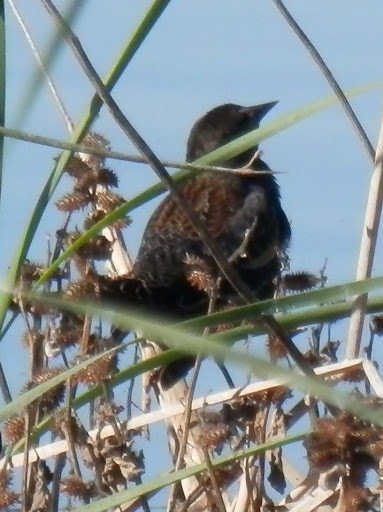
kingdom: Animalia
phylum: Chordata
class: Aves
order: Passeriformes
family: Icteridae
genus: Agelaius
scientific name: Agelaius phoeniceus
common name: Red-winged blackbird
